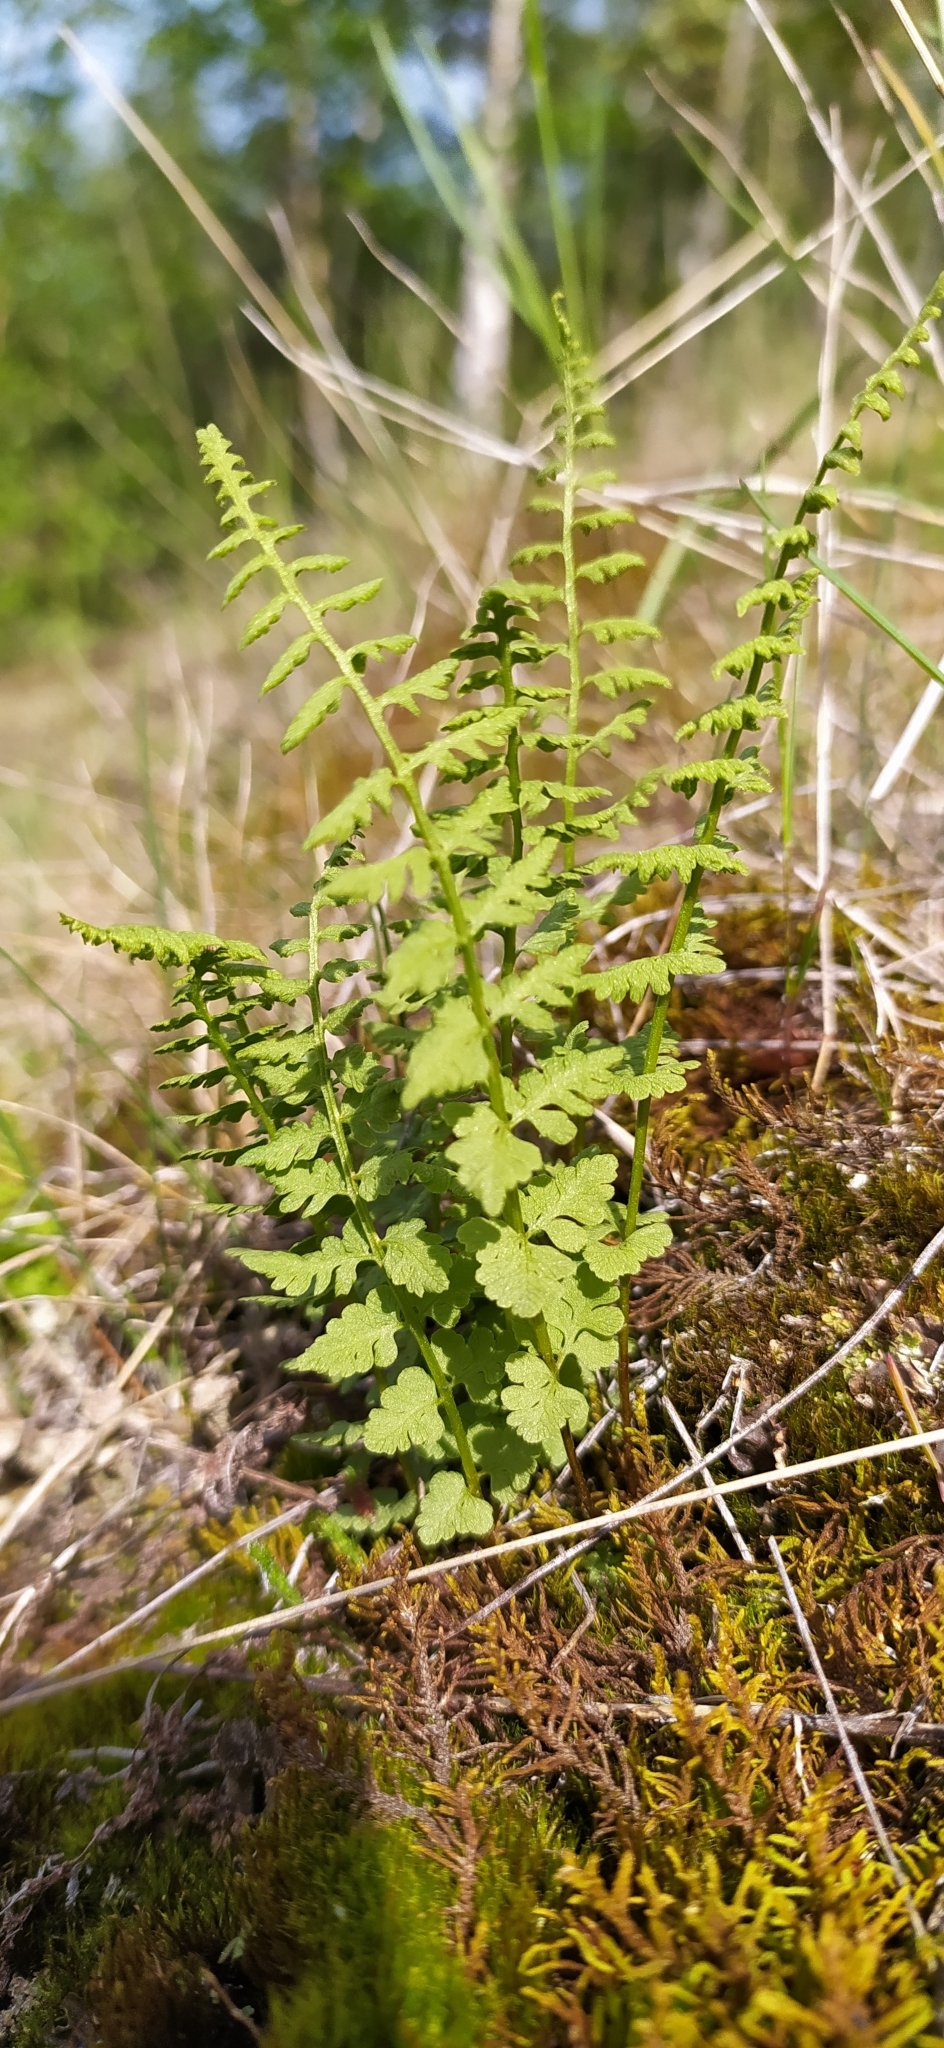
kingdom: Plantae
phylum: Tracheophyta
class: Polypodiopsida
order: Polypodiales
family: Woodsiaceae
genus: Woodsia
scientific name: Woodsia alpina
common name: Alpine woodsia
